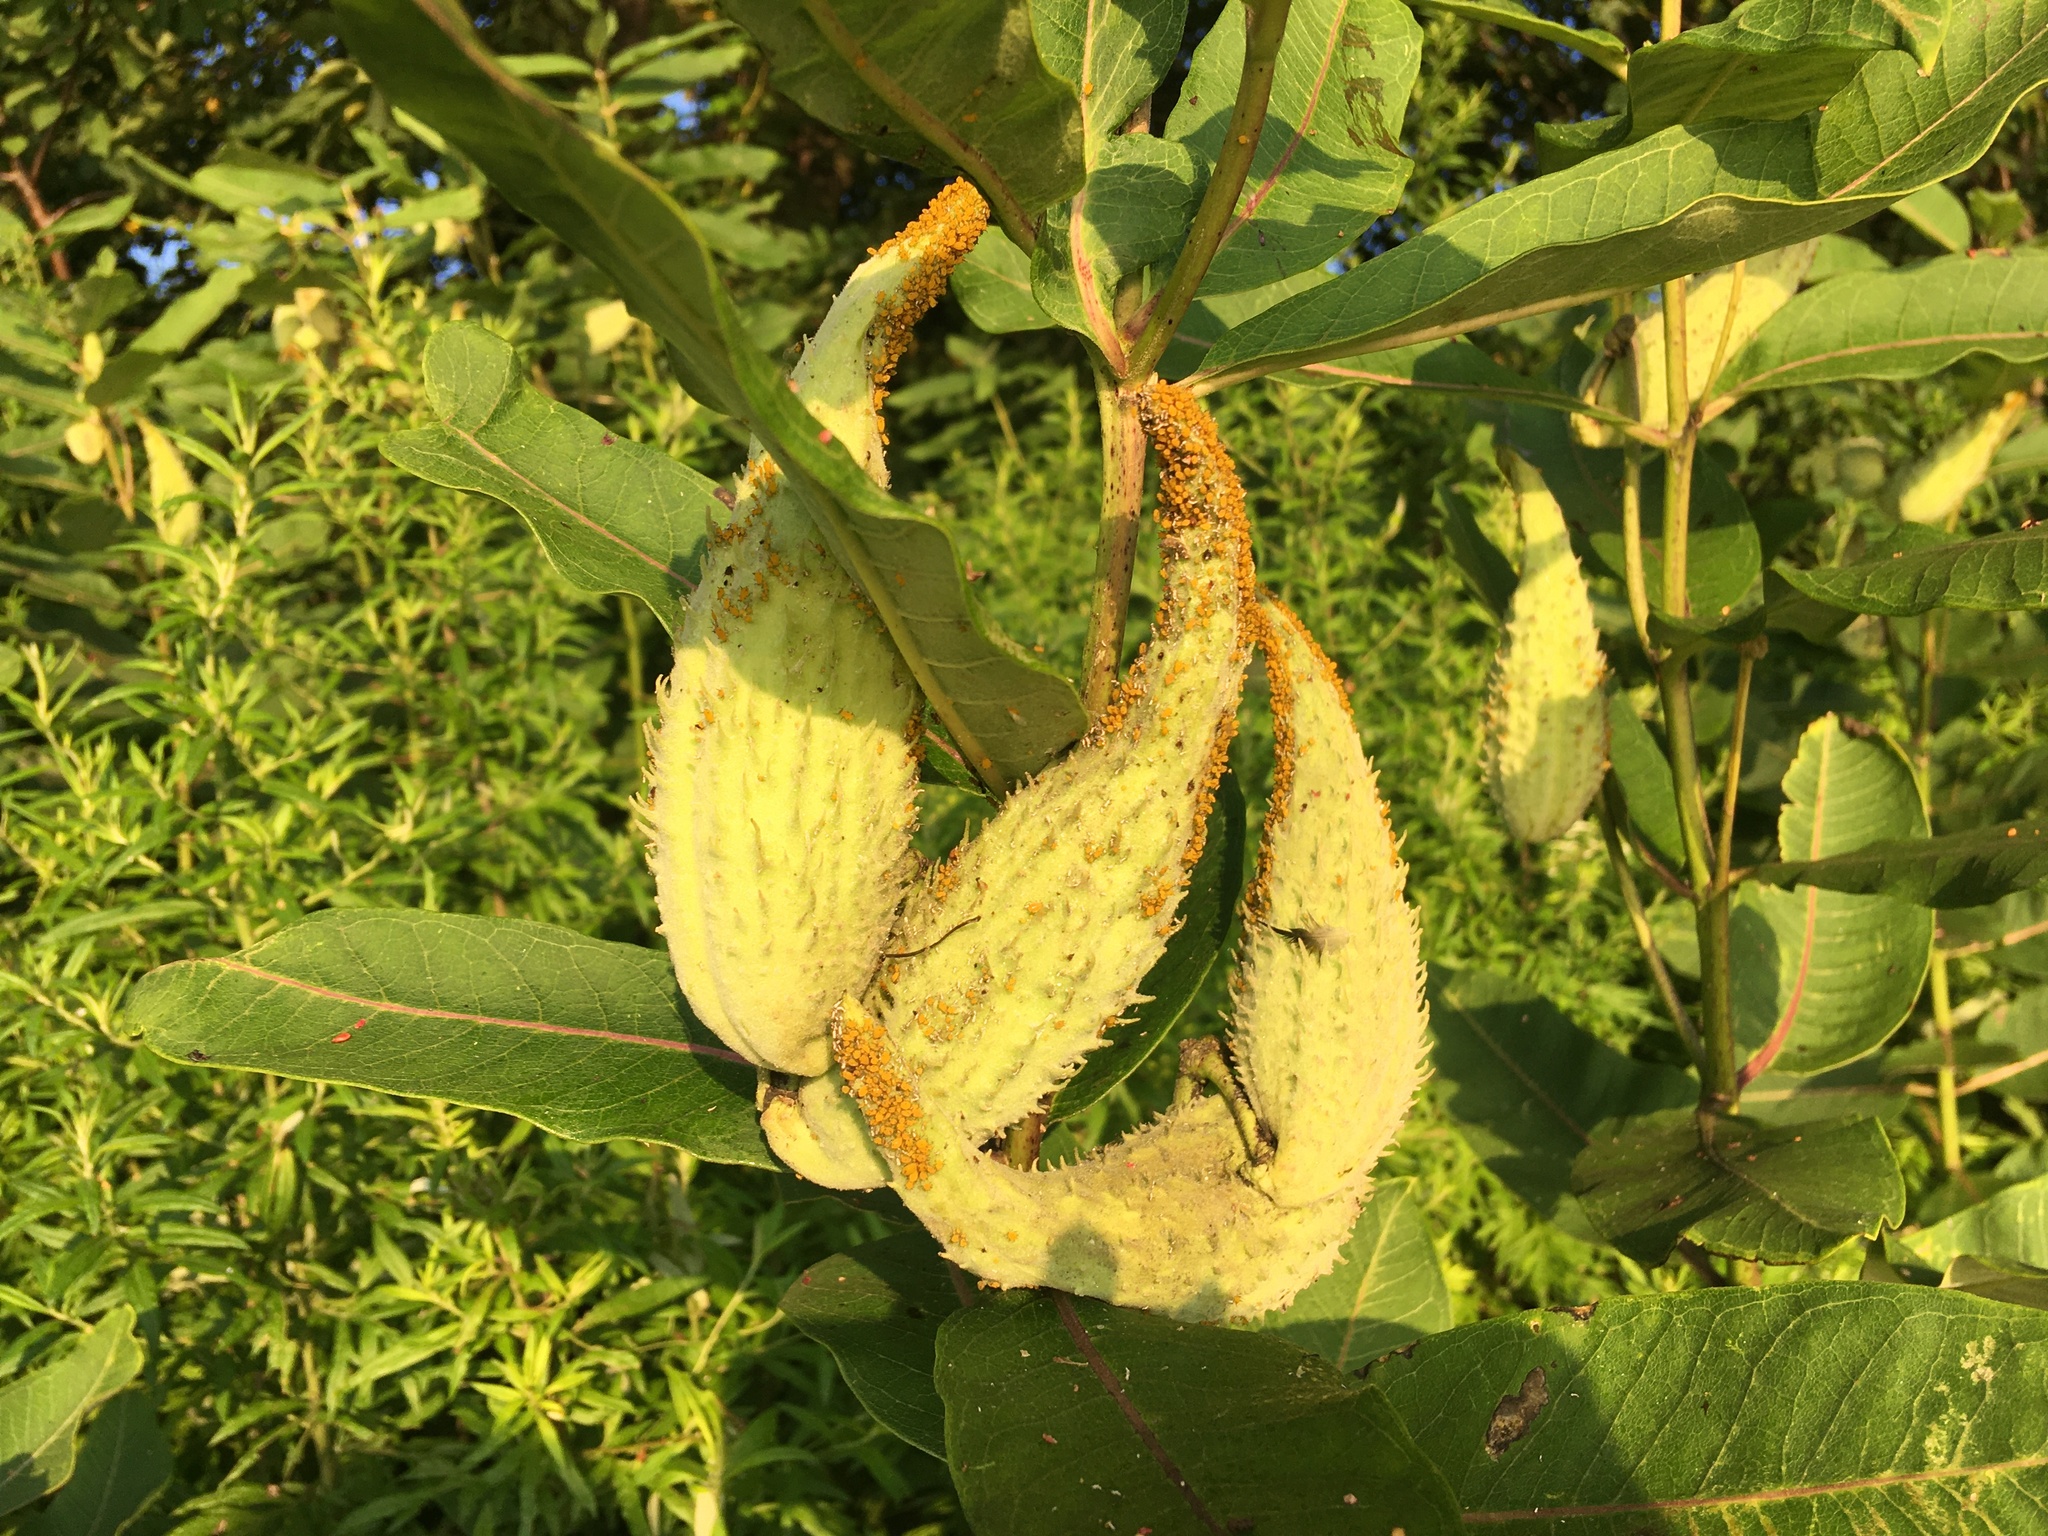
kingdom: Plantae
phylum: Tracheophyta
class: Magnoliopsida
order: Gentianales
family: Apocynaceae
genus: Asclepias
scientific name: Asclepias syriaca
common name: Common milkweed
